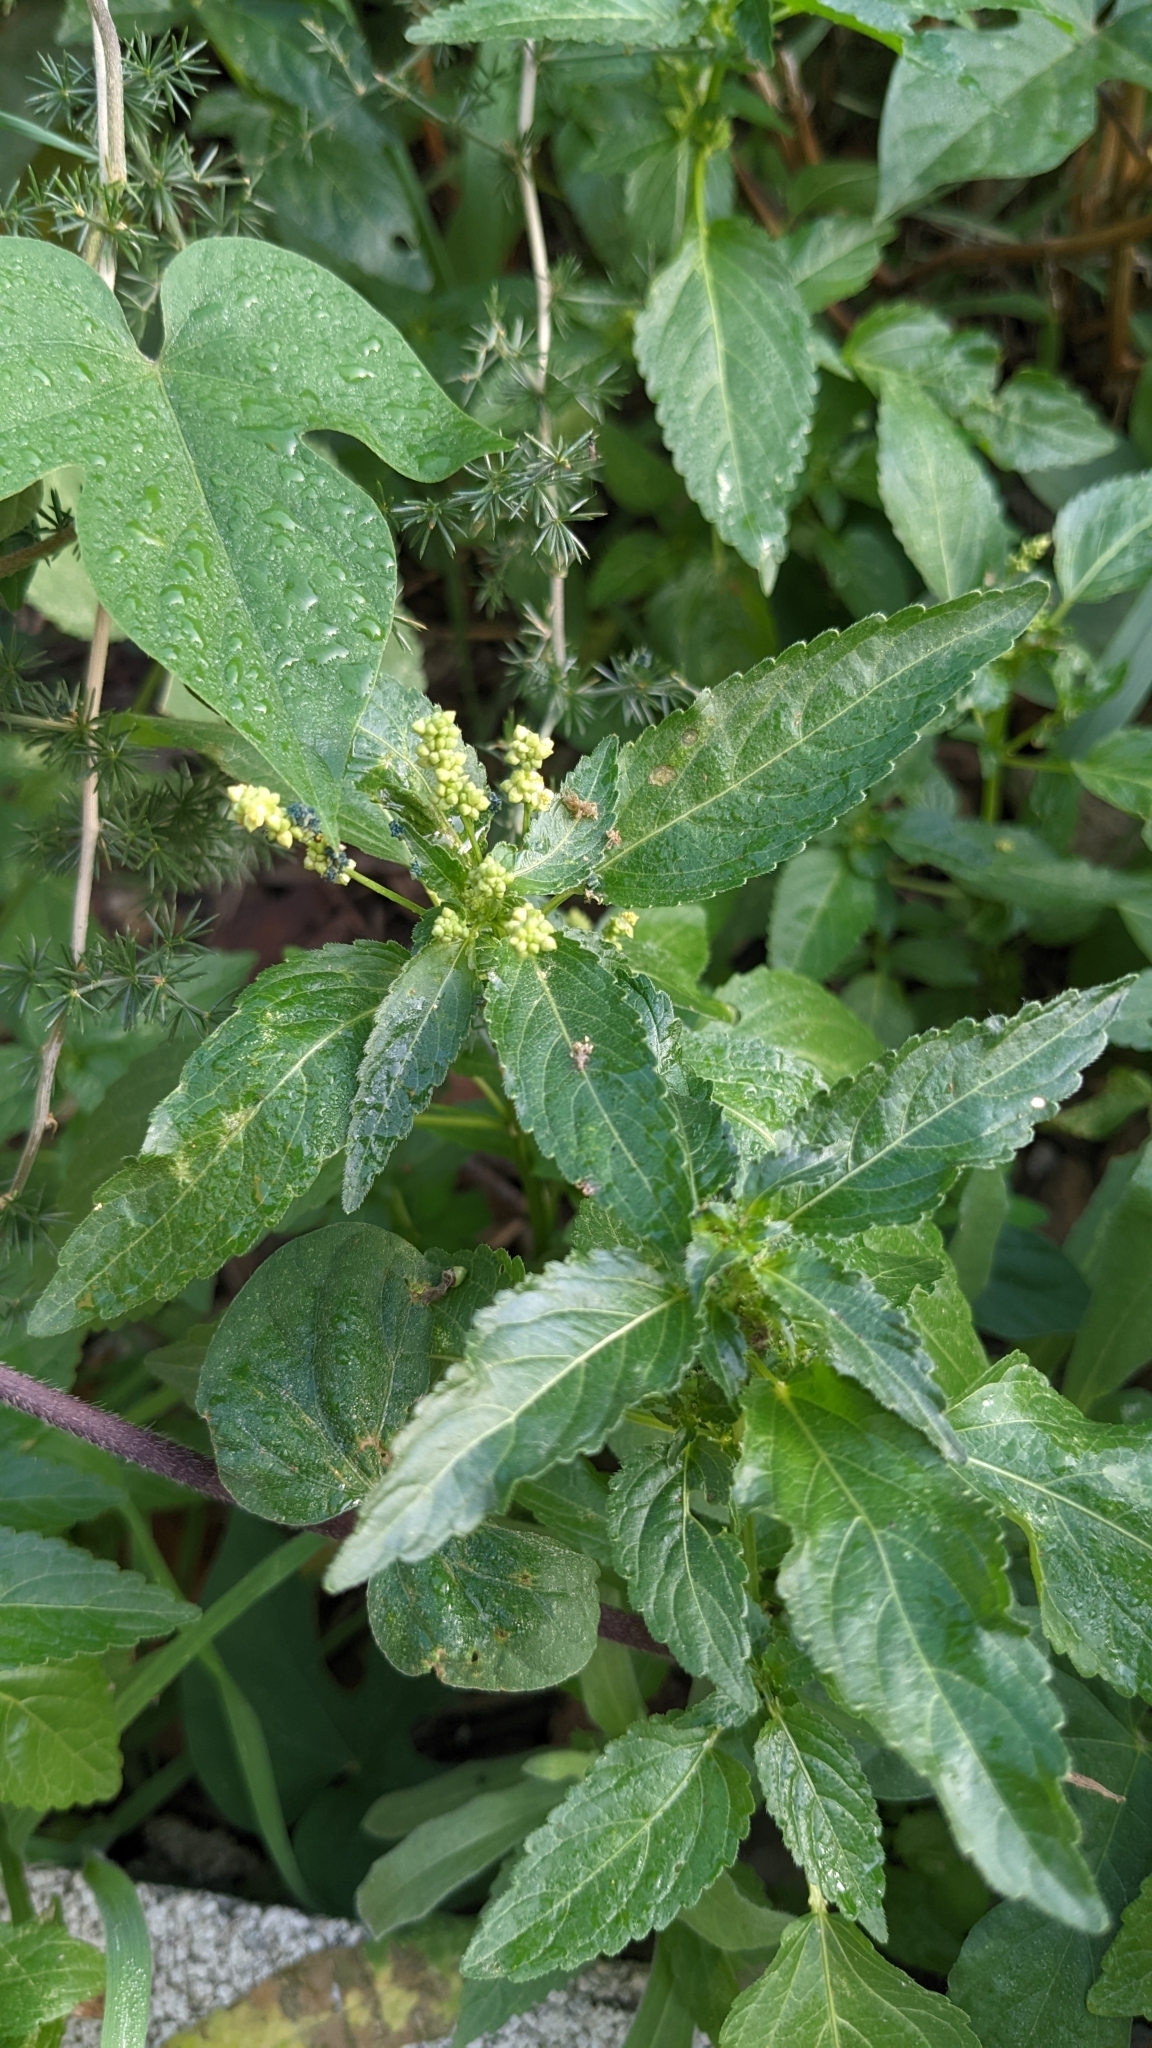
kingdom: Plantae
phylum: Tracheophyta
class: Magnoliopsida
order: Malpighiales
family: Euphorbiaceae
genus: Mercurialis
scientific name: Mercurialis annua
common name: Annual mercury
